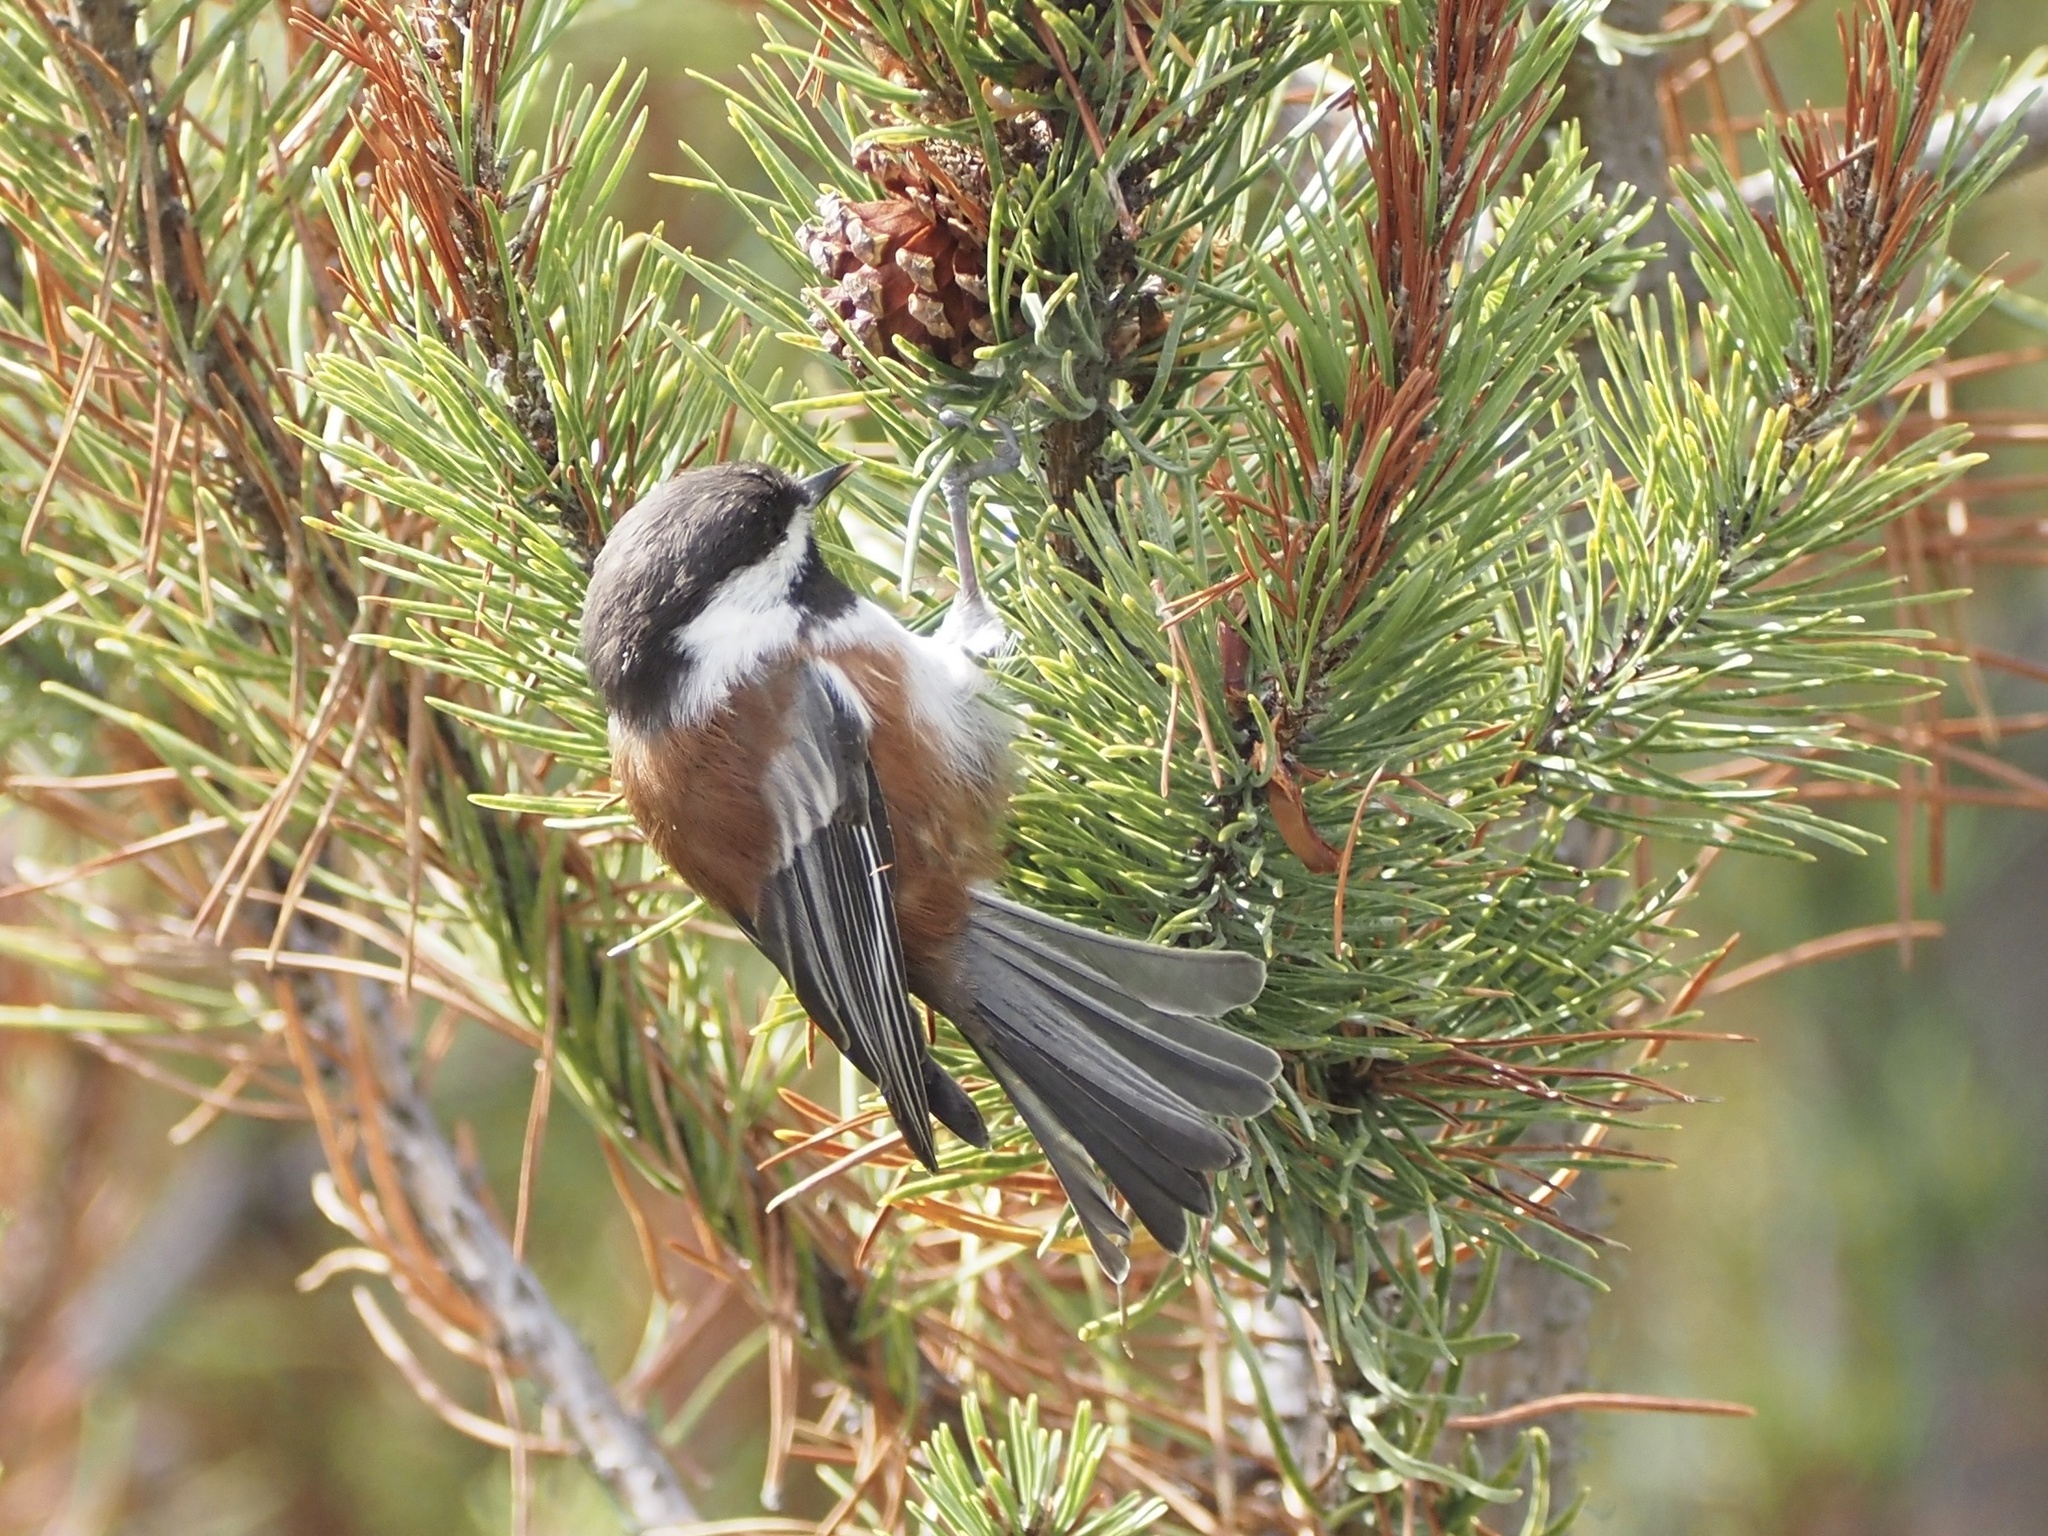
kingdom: Animalia
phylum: Chordata
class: Aves
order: Passeriformes
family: Paridae
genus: Poecile
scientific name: Poecile rufescens
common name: Chestnut-backed chickadee
